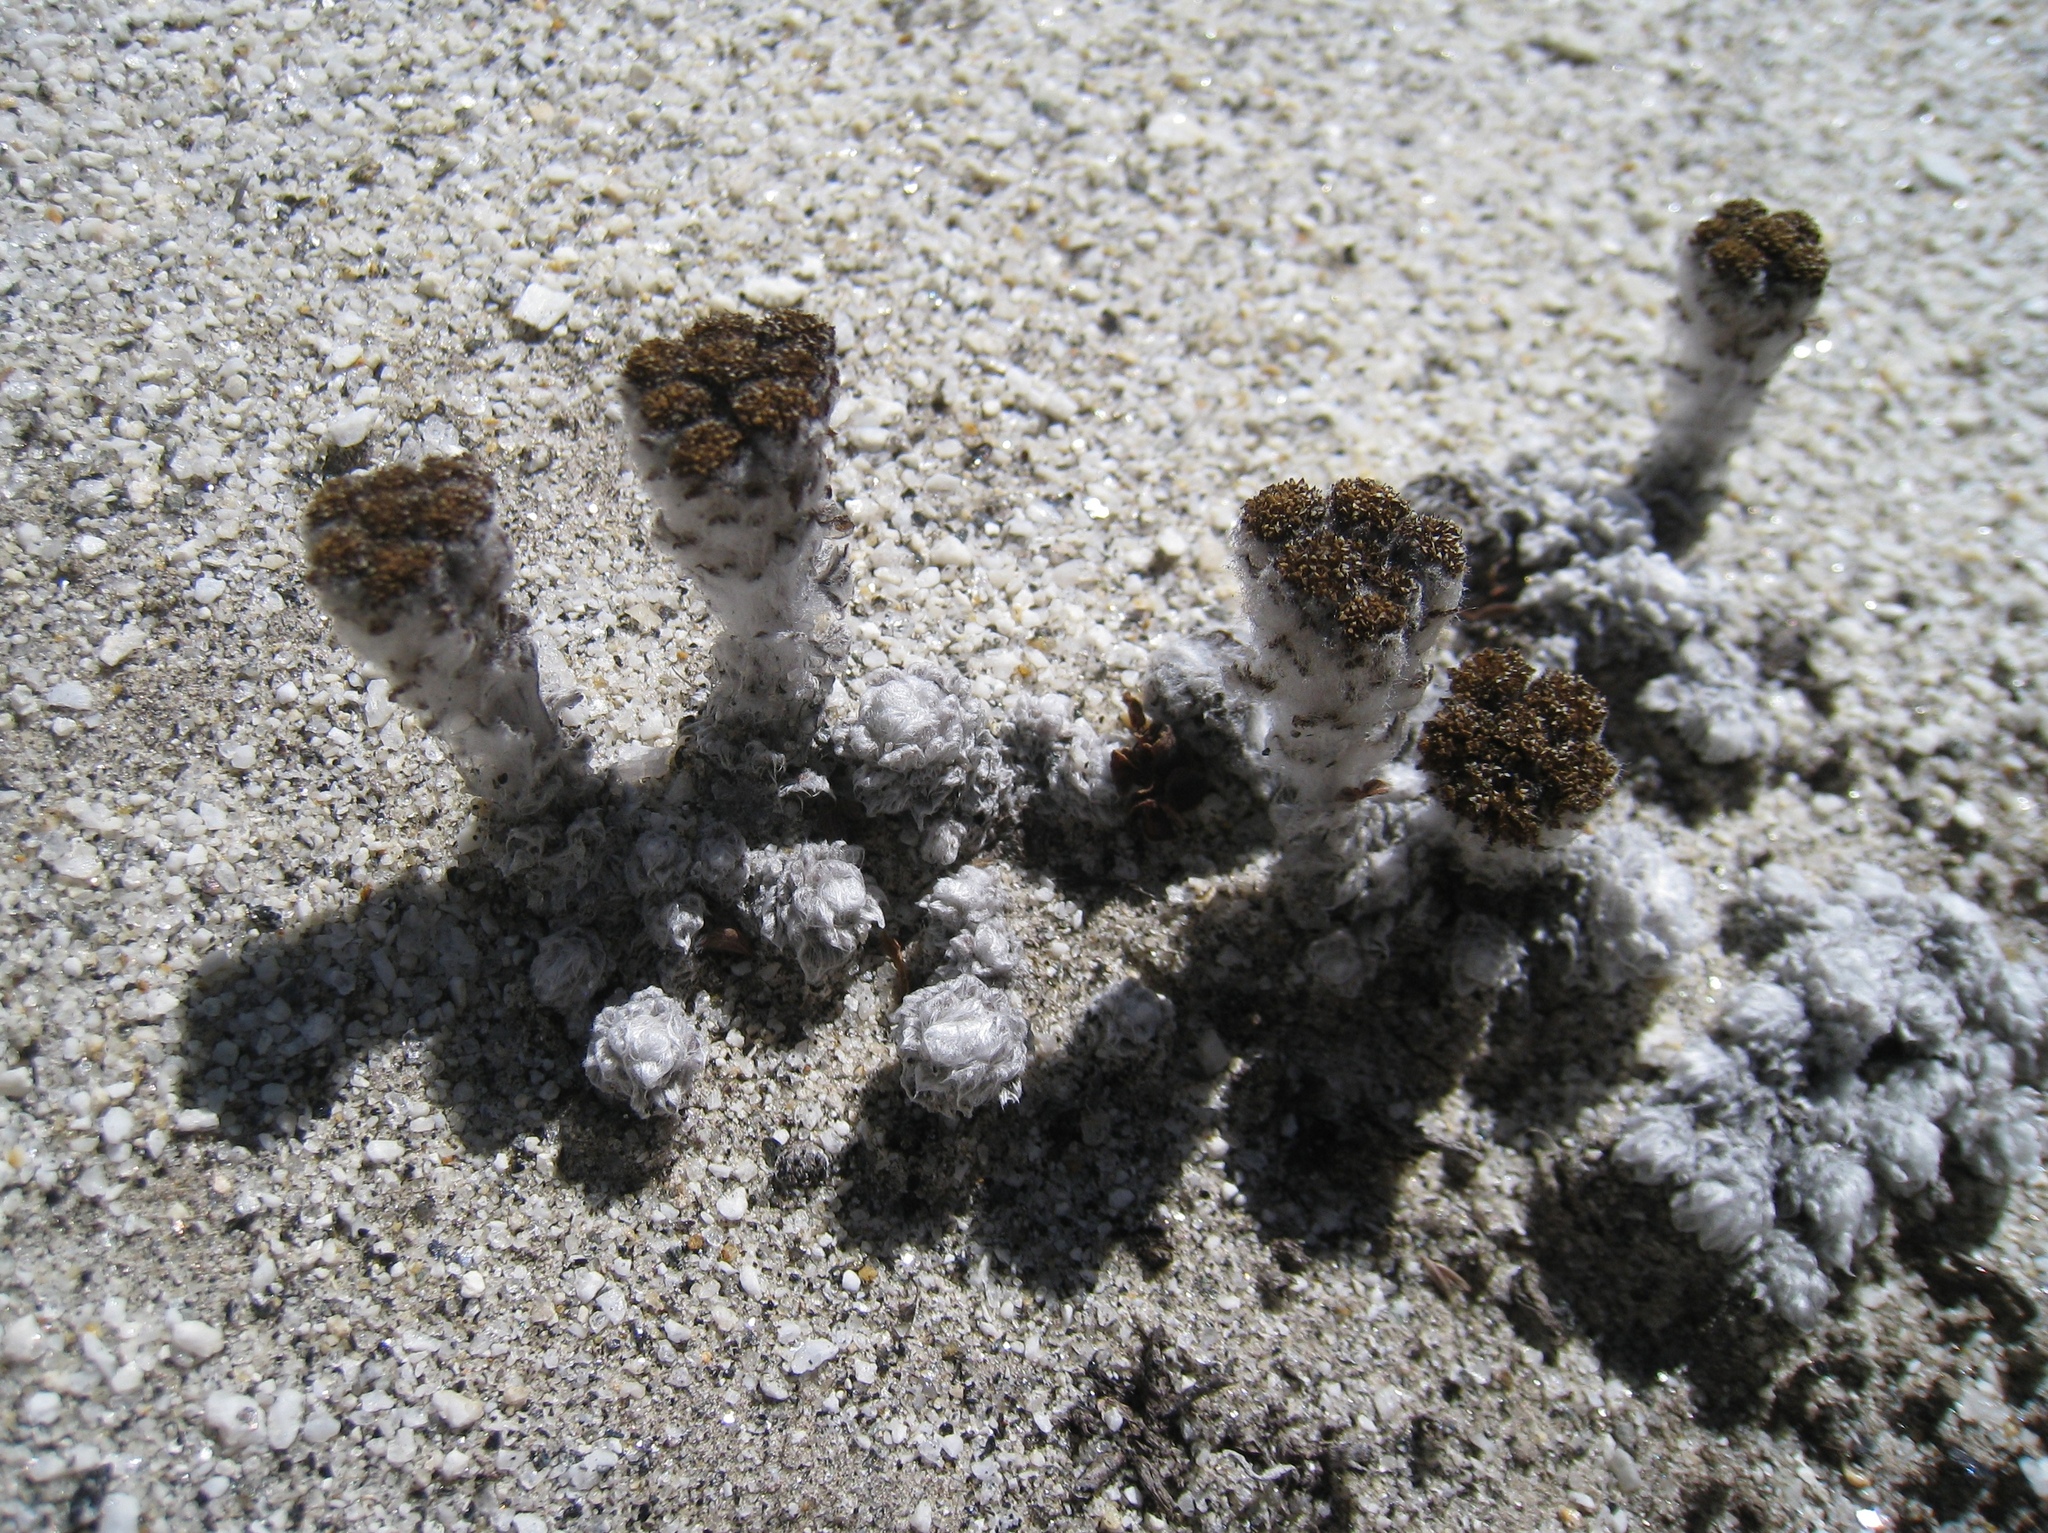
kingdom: Plantae
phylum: Tracheophyta
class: Magnoliopsida
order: Asterales
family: Asteraceae
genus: Hippolytia
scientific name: Hippolytia gossypina
